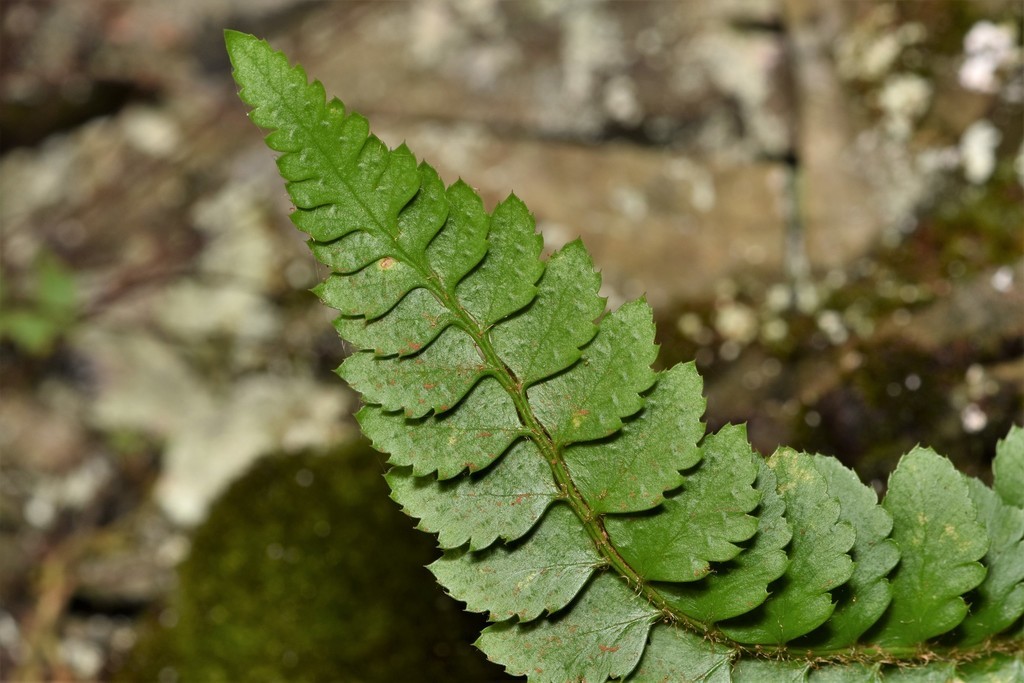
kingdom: Plantae
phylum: Tracheophyta
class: Polypodiopsida
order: Polypodiales
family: Dryopteridaceae
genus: Polystichum
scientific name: Polystichum californicum
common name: California sword fern
